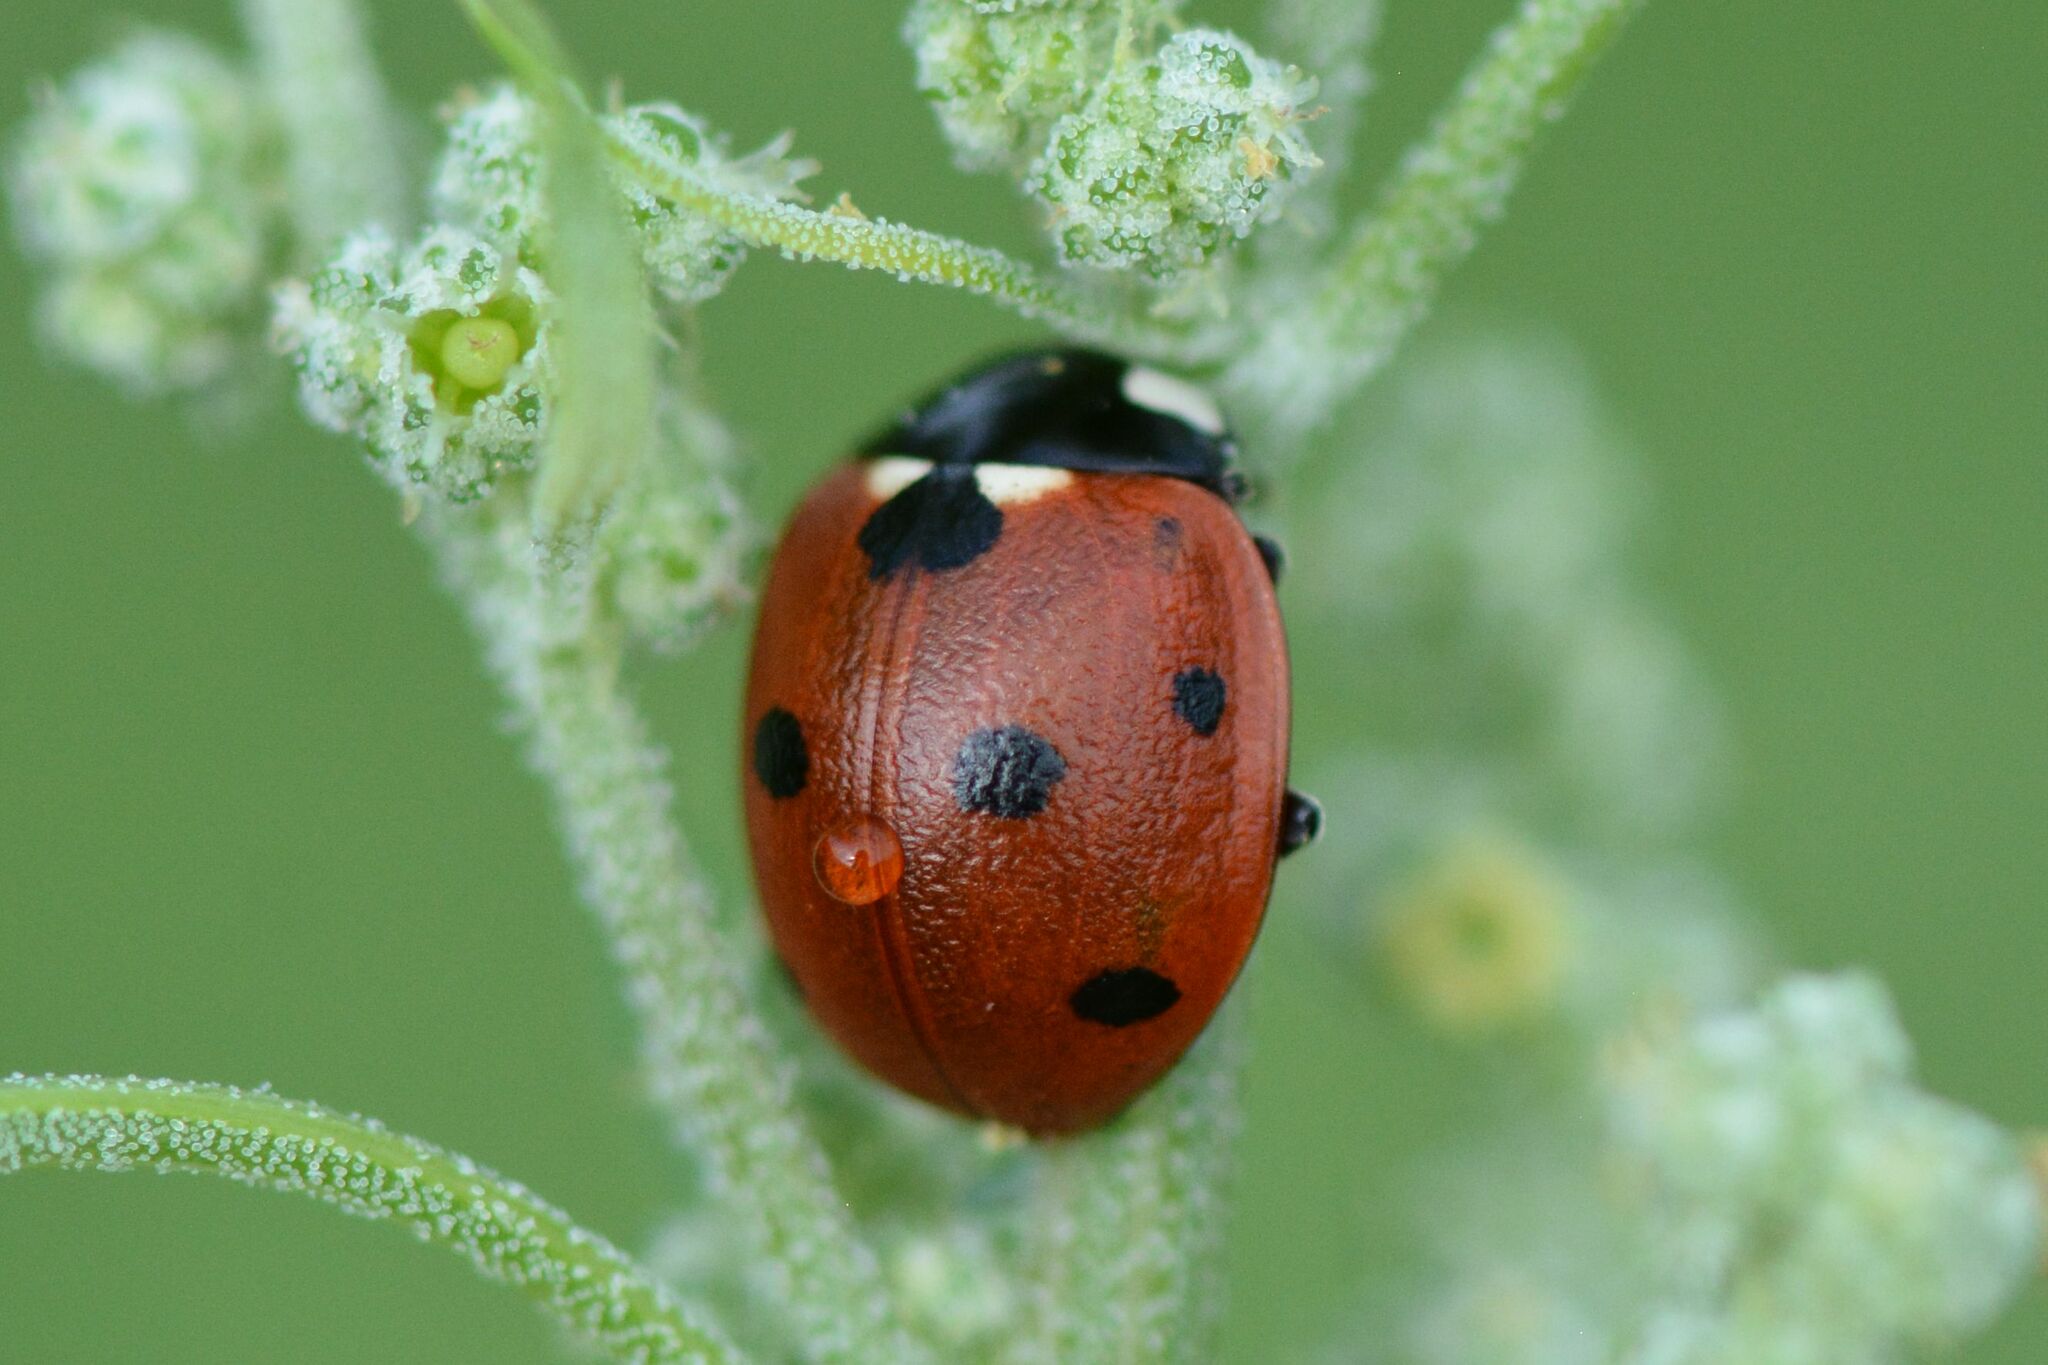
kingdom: Animalia
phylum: Arthropoda
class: Insecta
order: Coleoptera
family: Coccinellidae
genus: Coccinella
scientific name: Coccinella septempunctata
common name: Sevenspotted lady beetle
